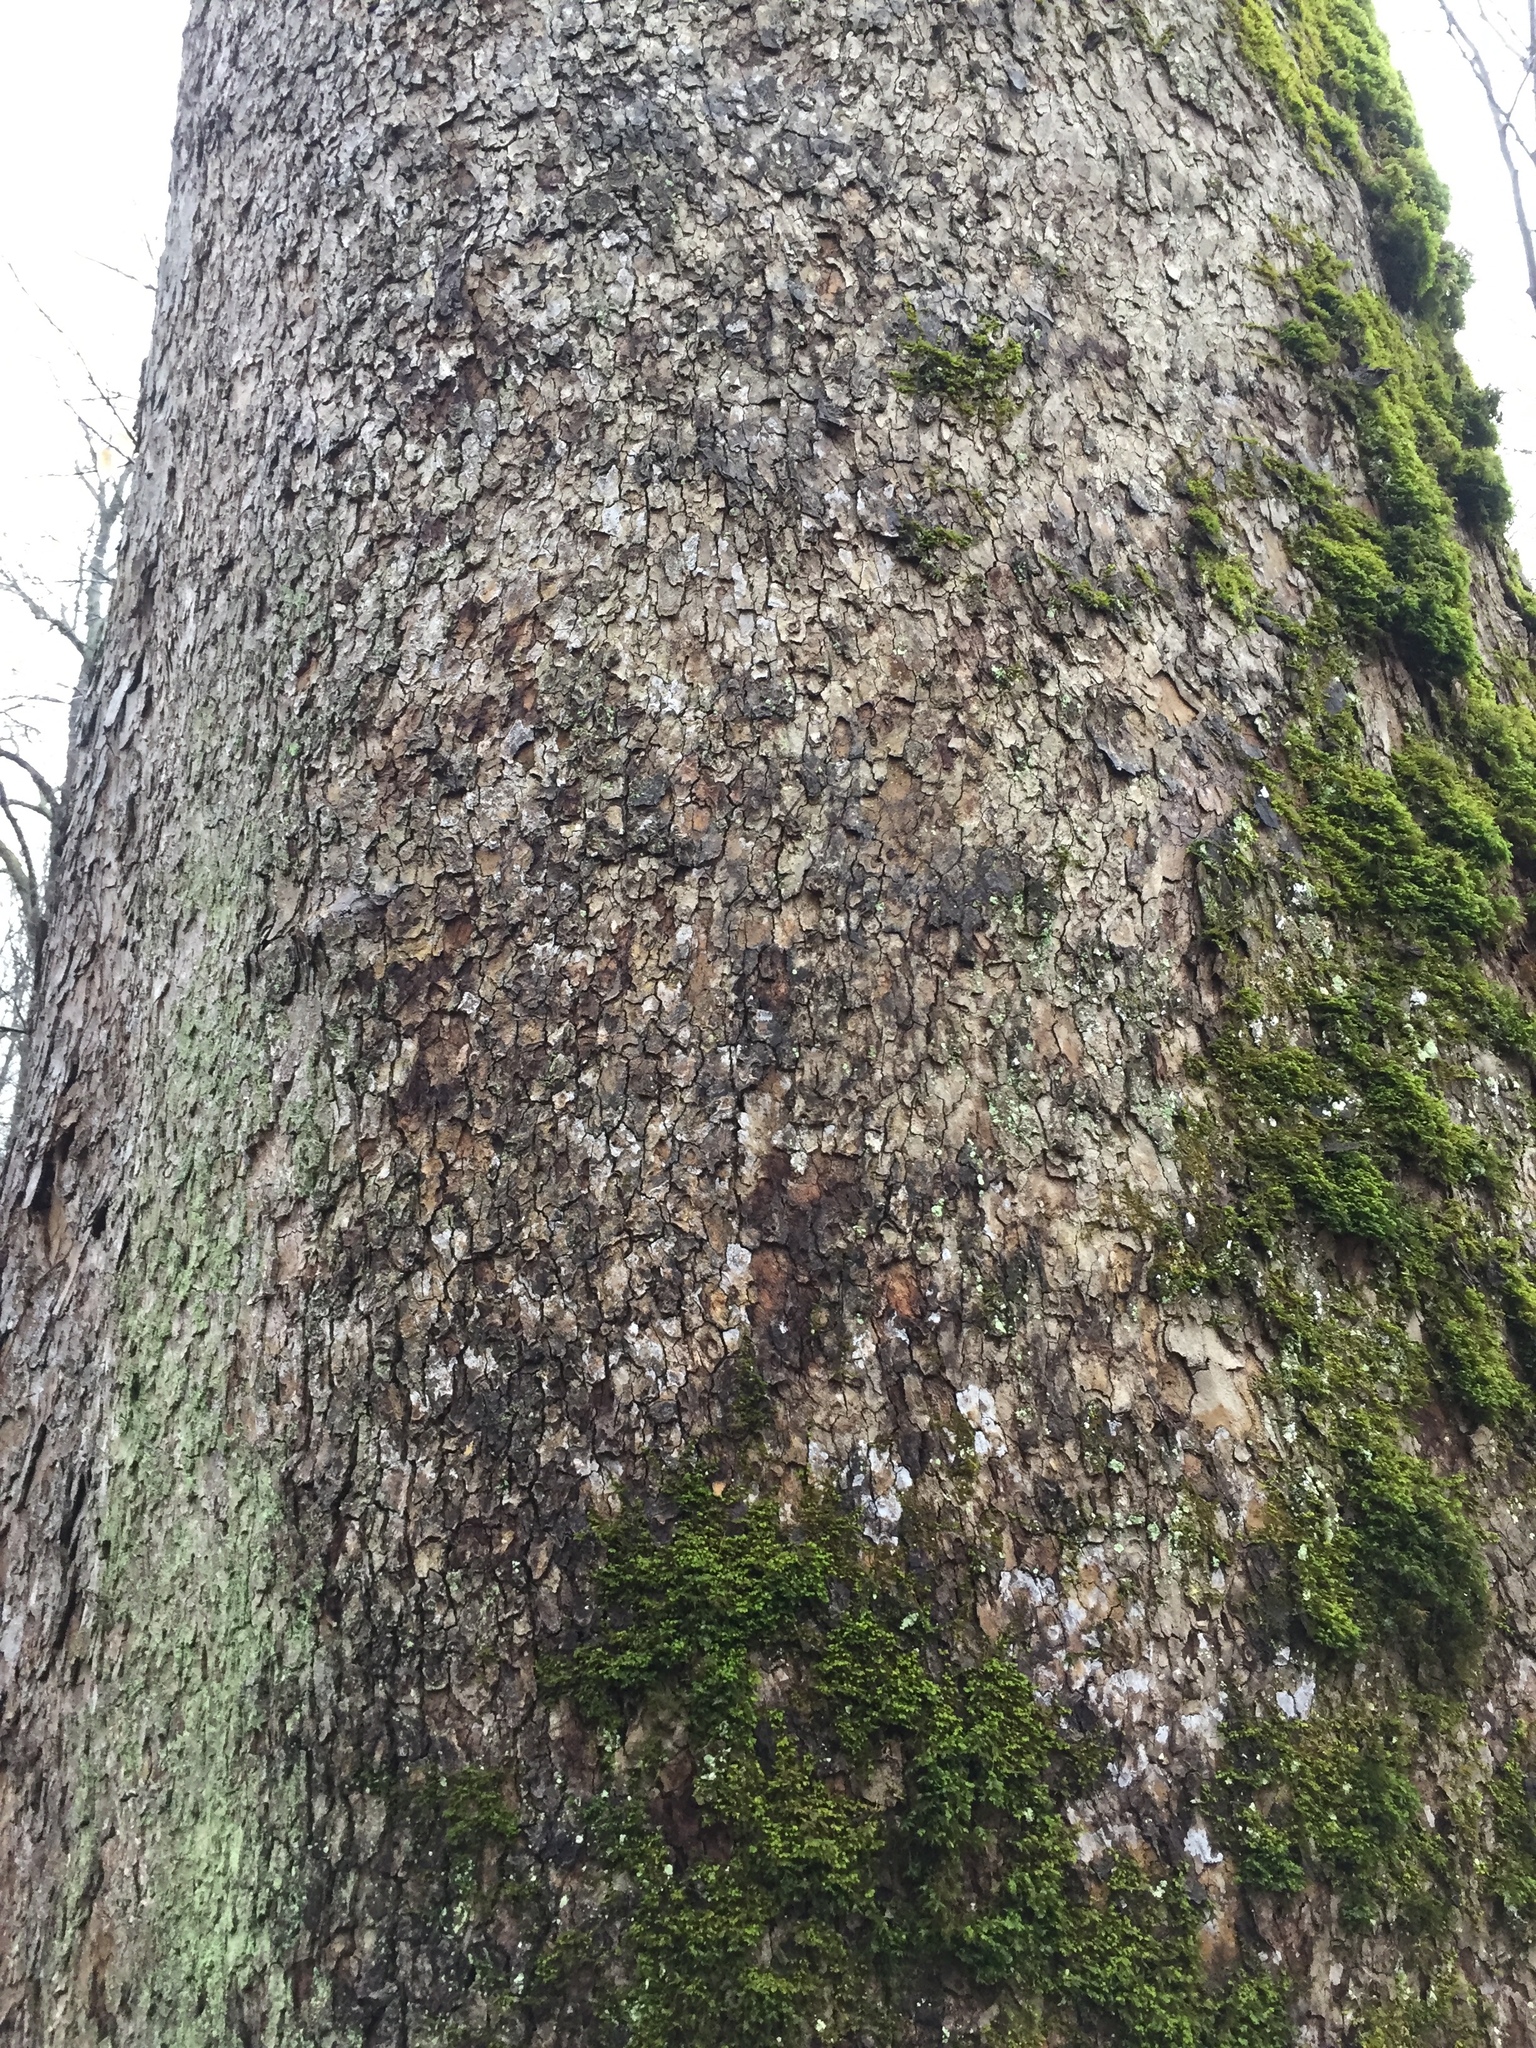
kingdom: Plantae
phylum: Tracheophyta
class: Magnoliopsida
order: Proteales
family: Platanaceae
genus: Platanus
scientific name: Platanus occidentalis
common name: American sycamore
